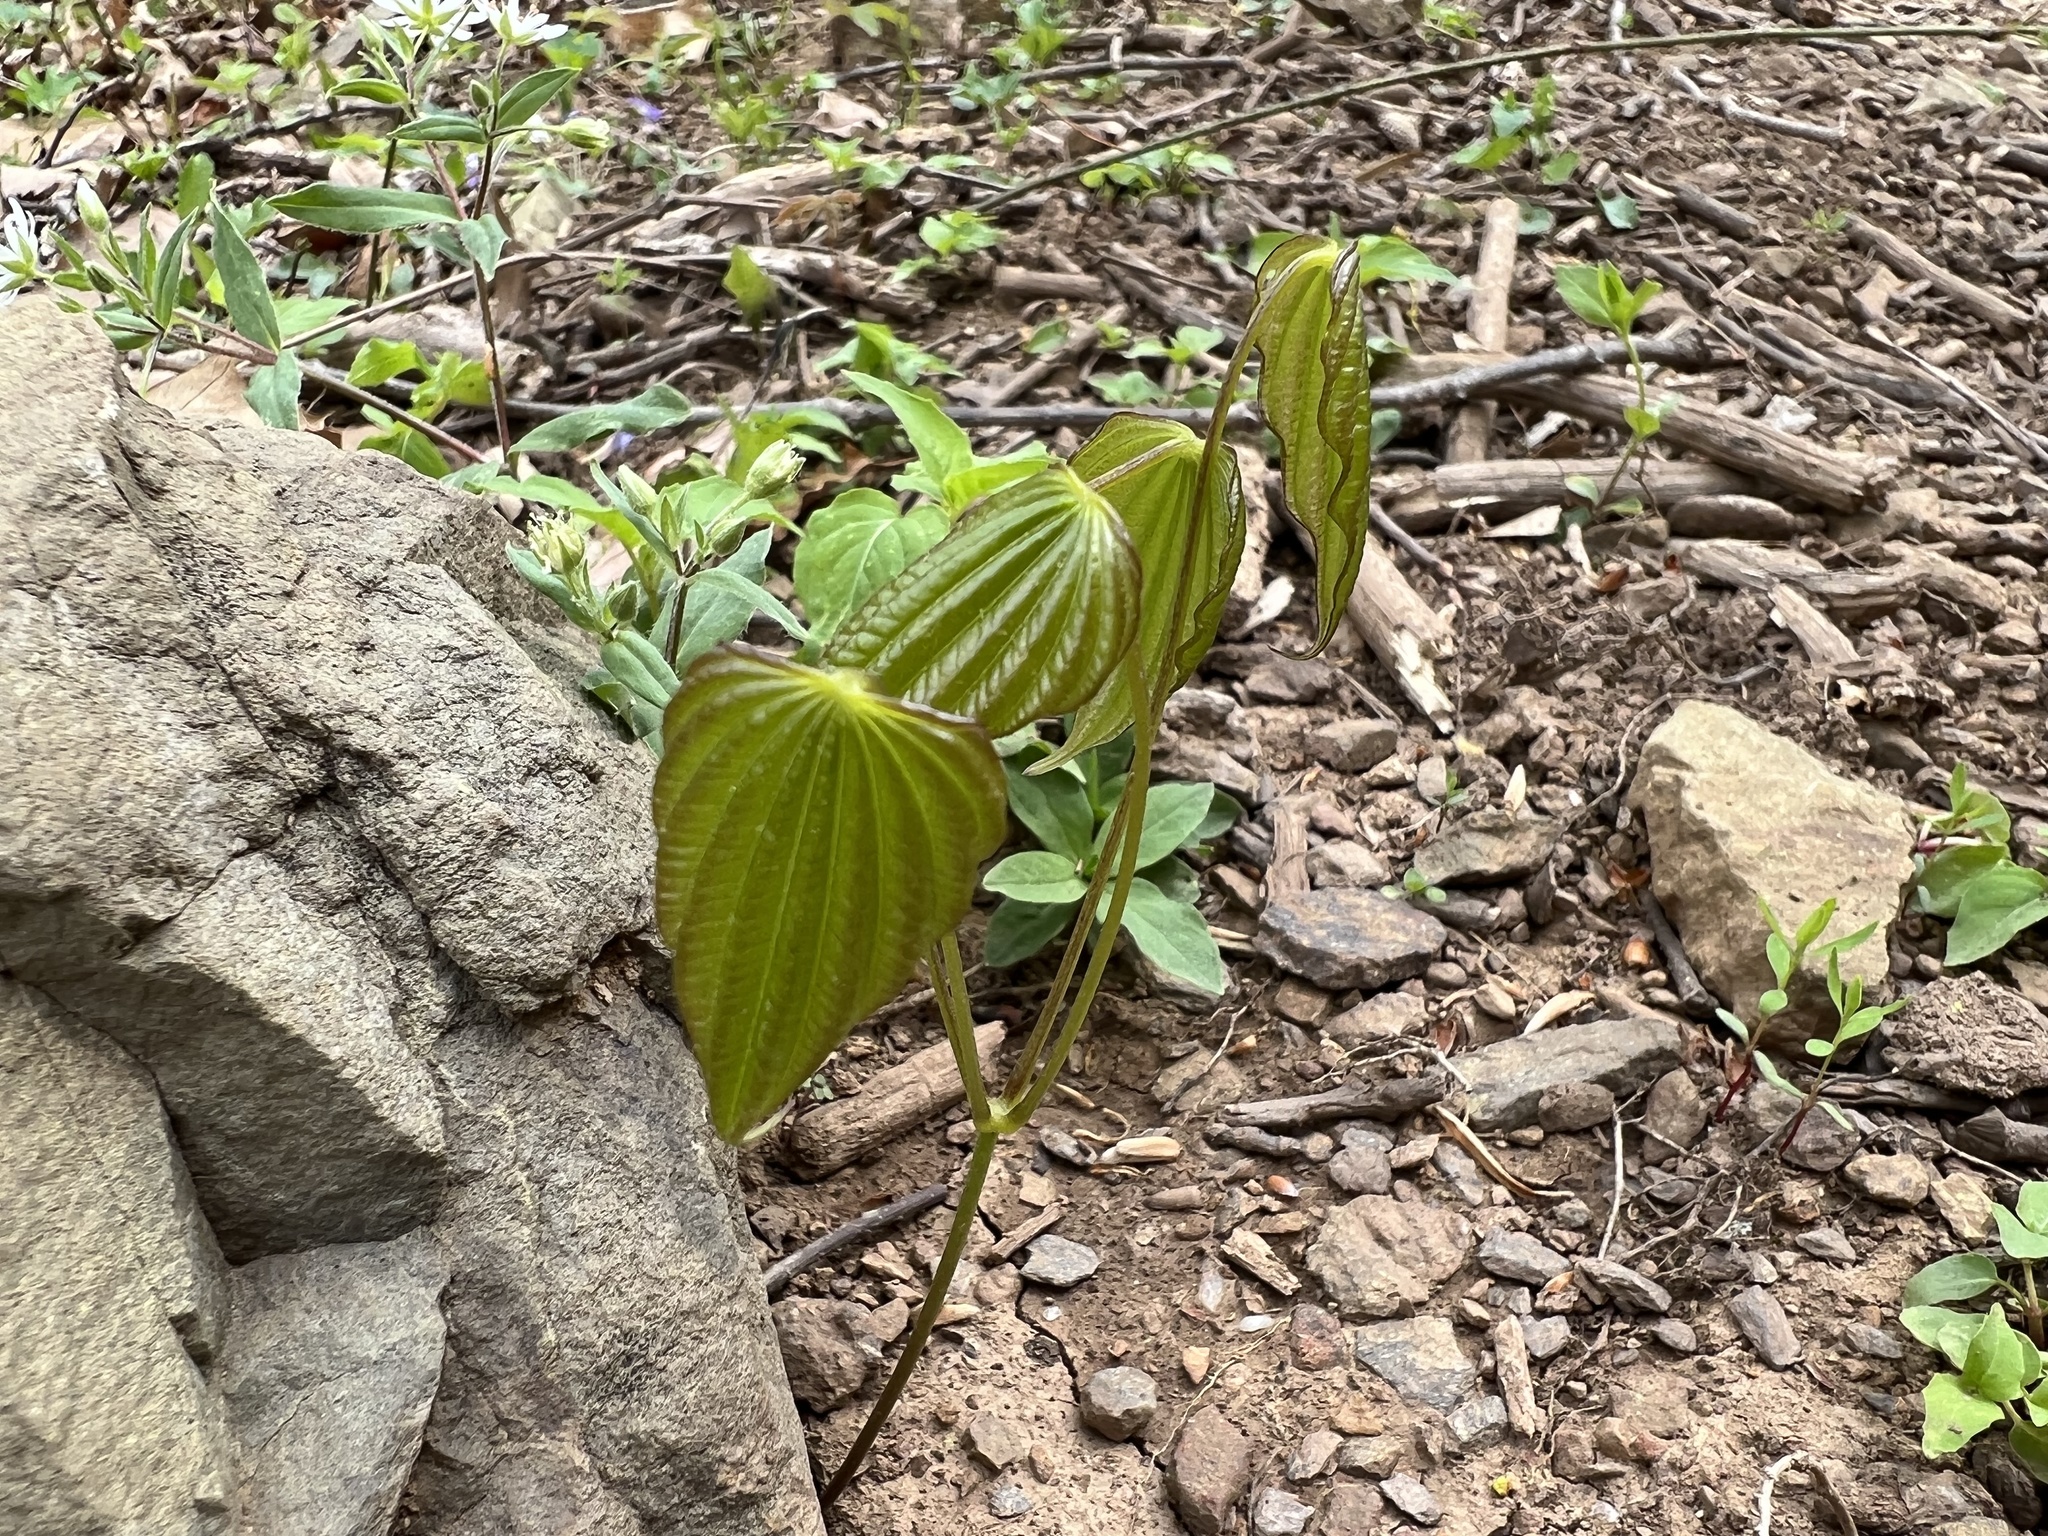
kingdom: Plantae
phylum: Tracheophyta
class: Liliopsida
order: Dioscoreales
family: Dioscoreaceae
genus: Dioscorea
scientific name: Dioscorea villosa
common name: Wild yam
